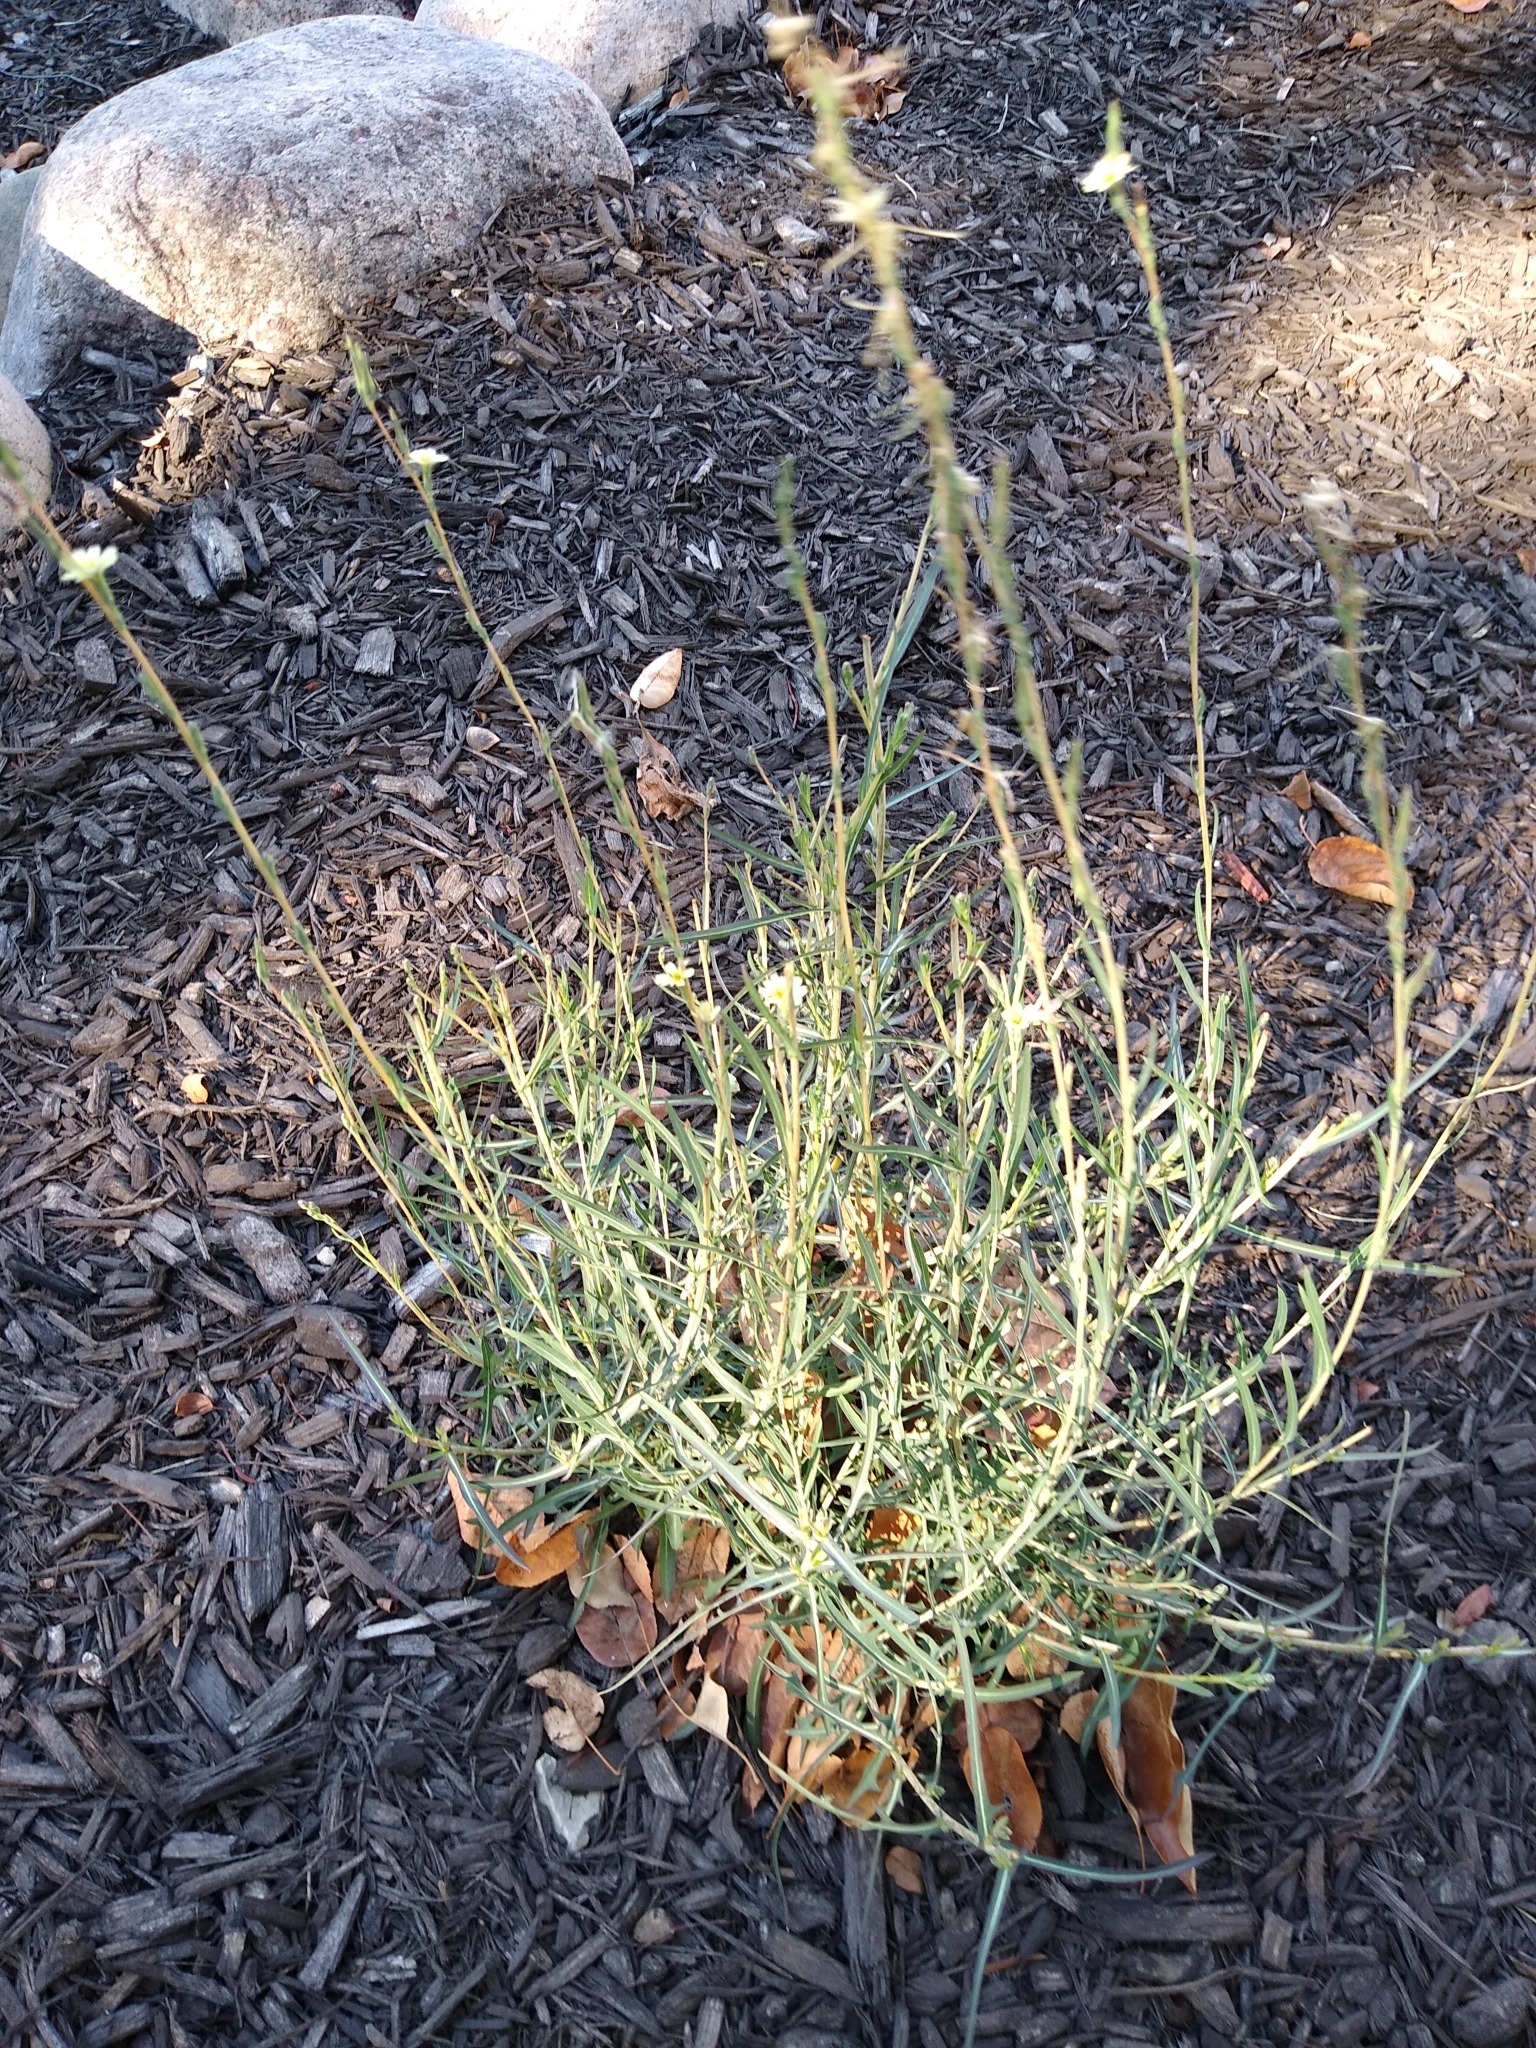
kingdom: Plantae
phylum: Tracheophyta
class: Magnoliopsida
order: Asterales
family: Asteraceae
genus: Lactuca
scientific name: Lactuca saligna
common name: Wild lettuce
